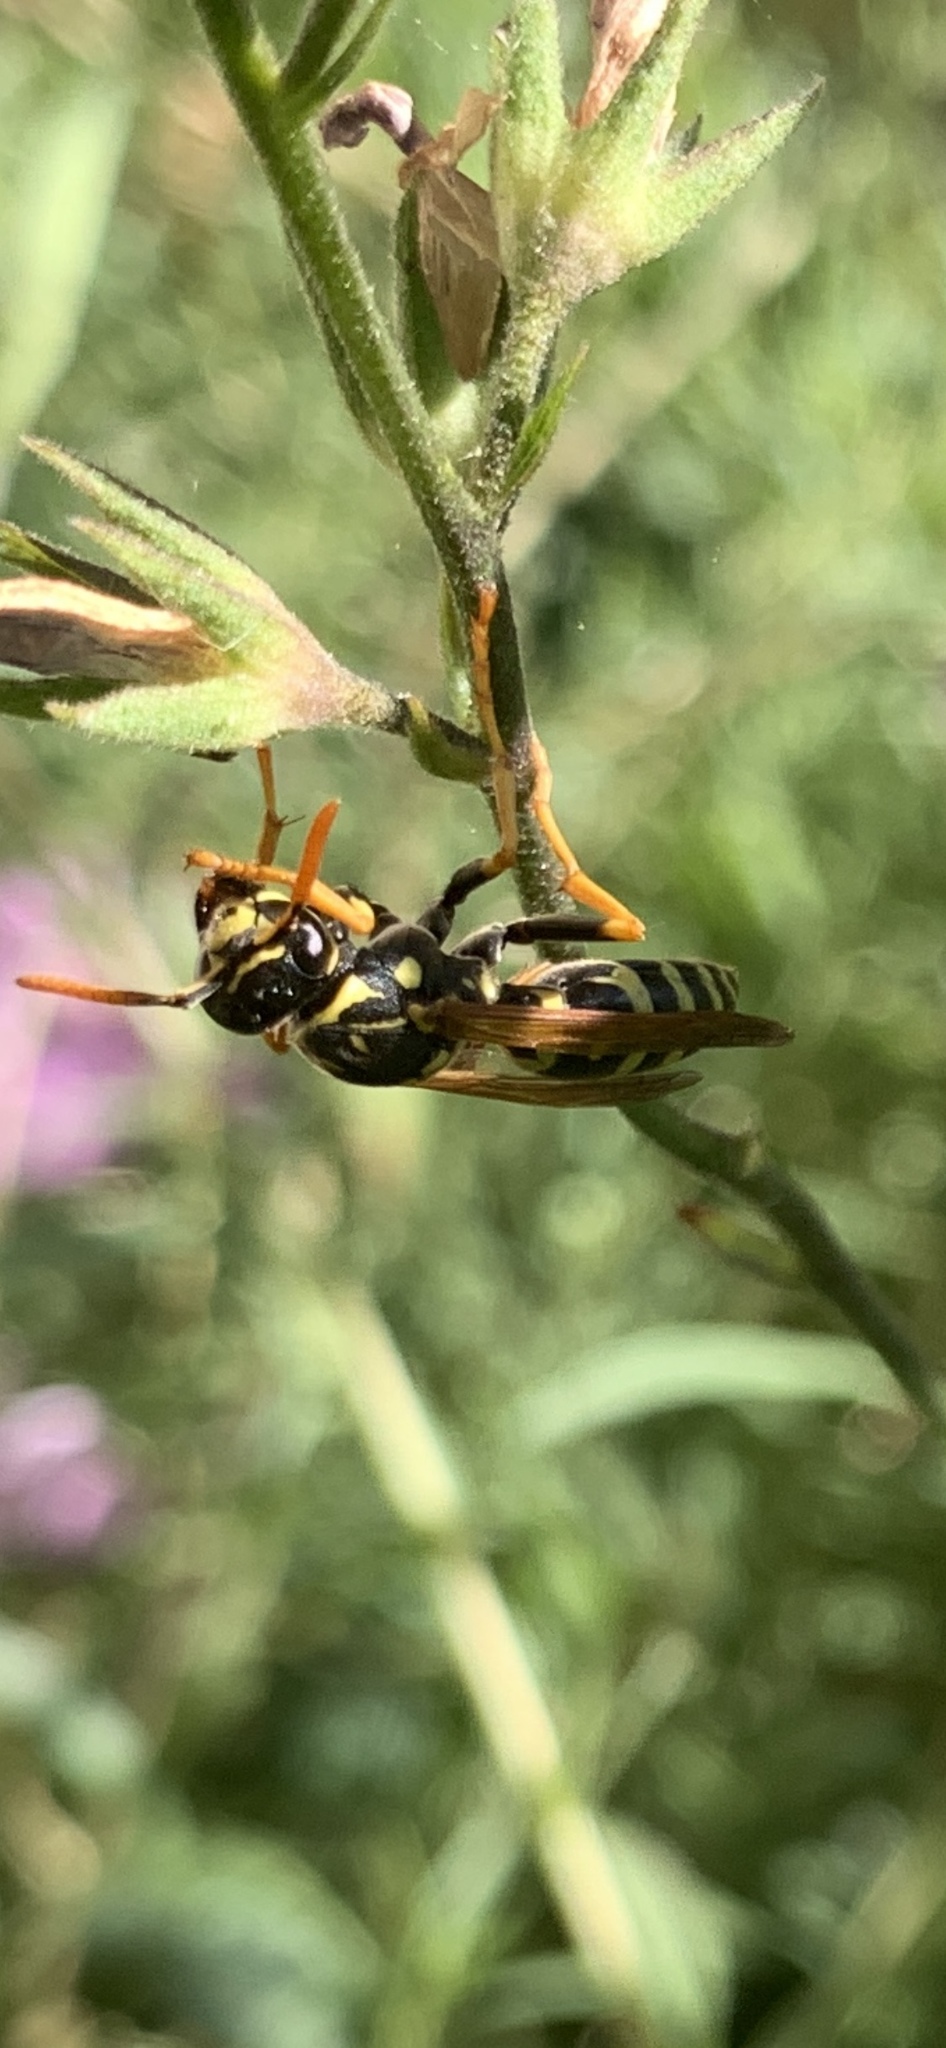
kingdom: Animalia
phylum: Arthropoda
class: Insecta
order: Hymenoptera
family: Eumenidae
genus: Polistes
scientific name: Polistes dominula
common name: Paper wasp
